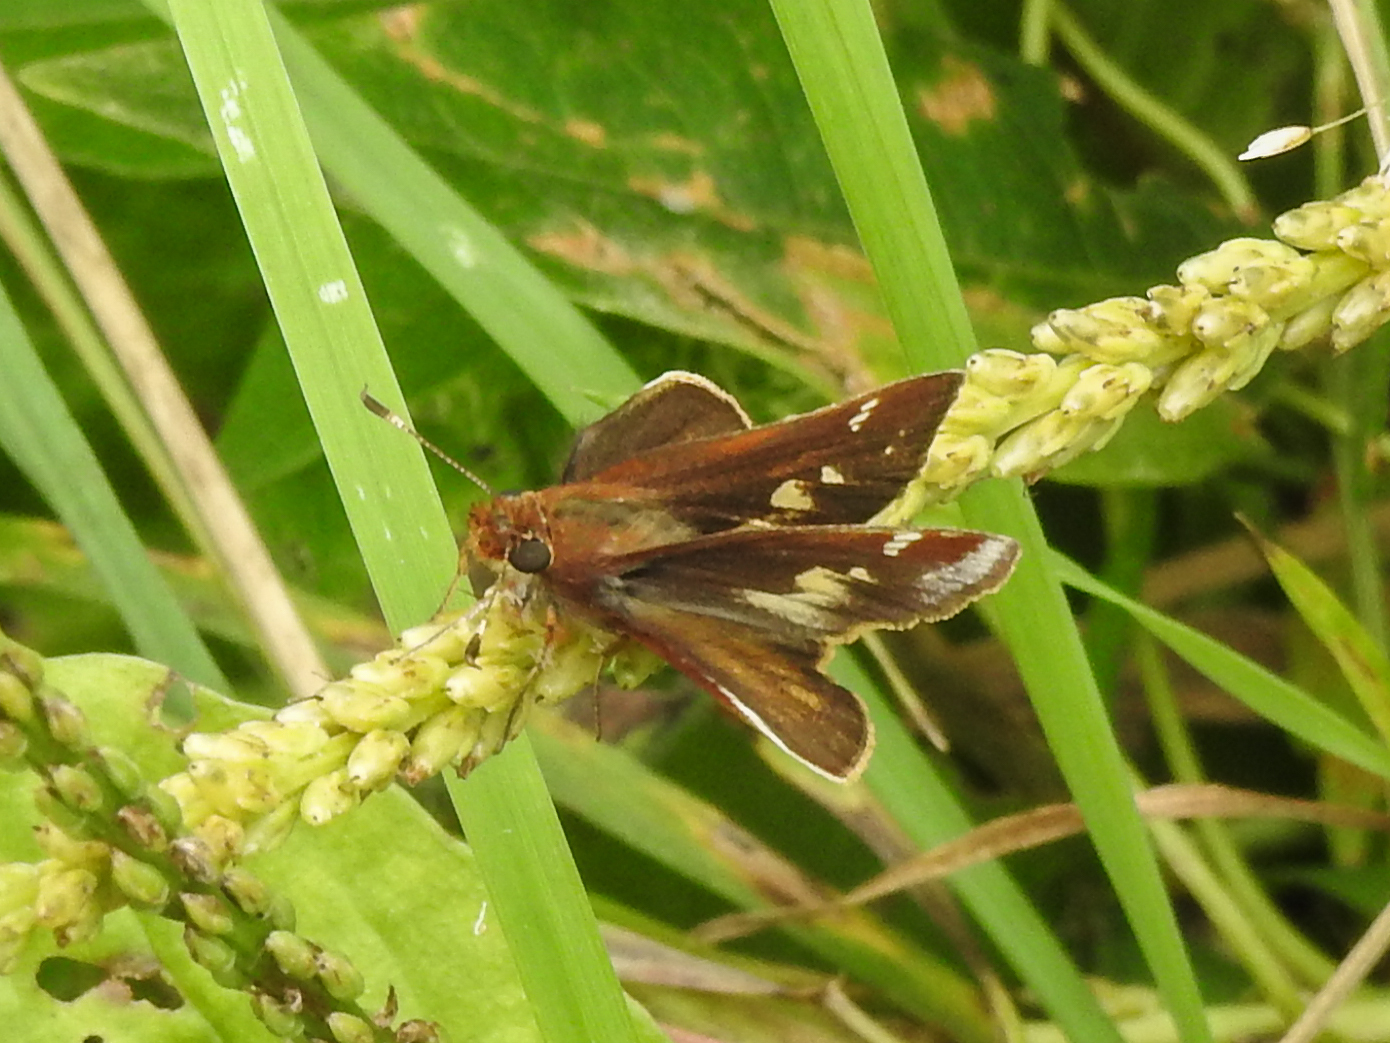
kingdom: Animalia
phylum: Arthropoda
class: Insecta
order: Lepidoptera
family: Hesperiidae
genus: Lon
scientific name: Lon zabulon
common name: Zabulon skipper
